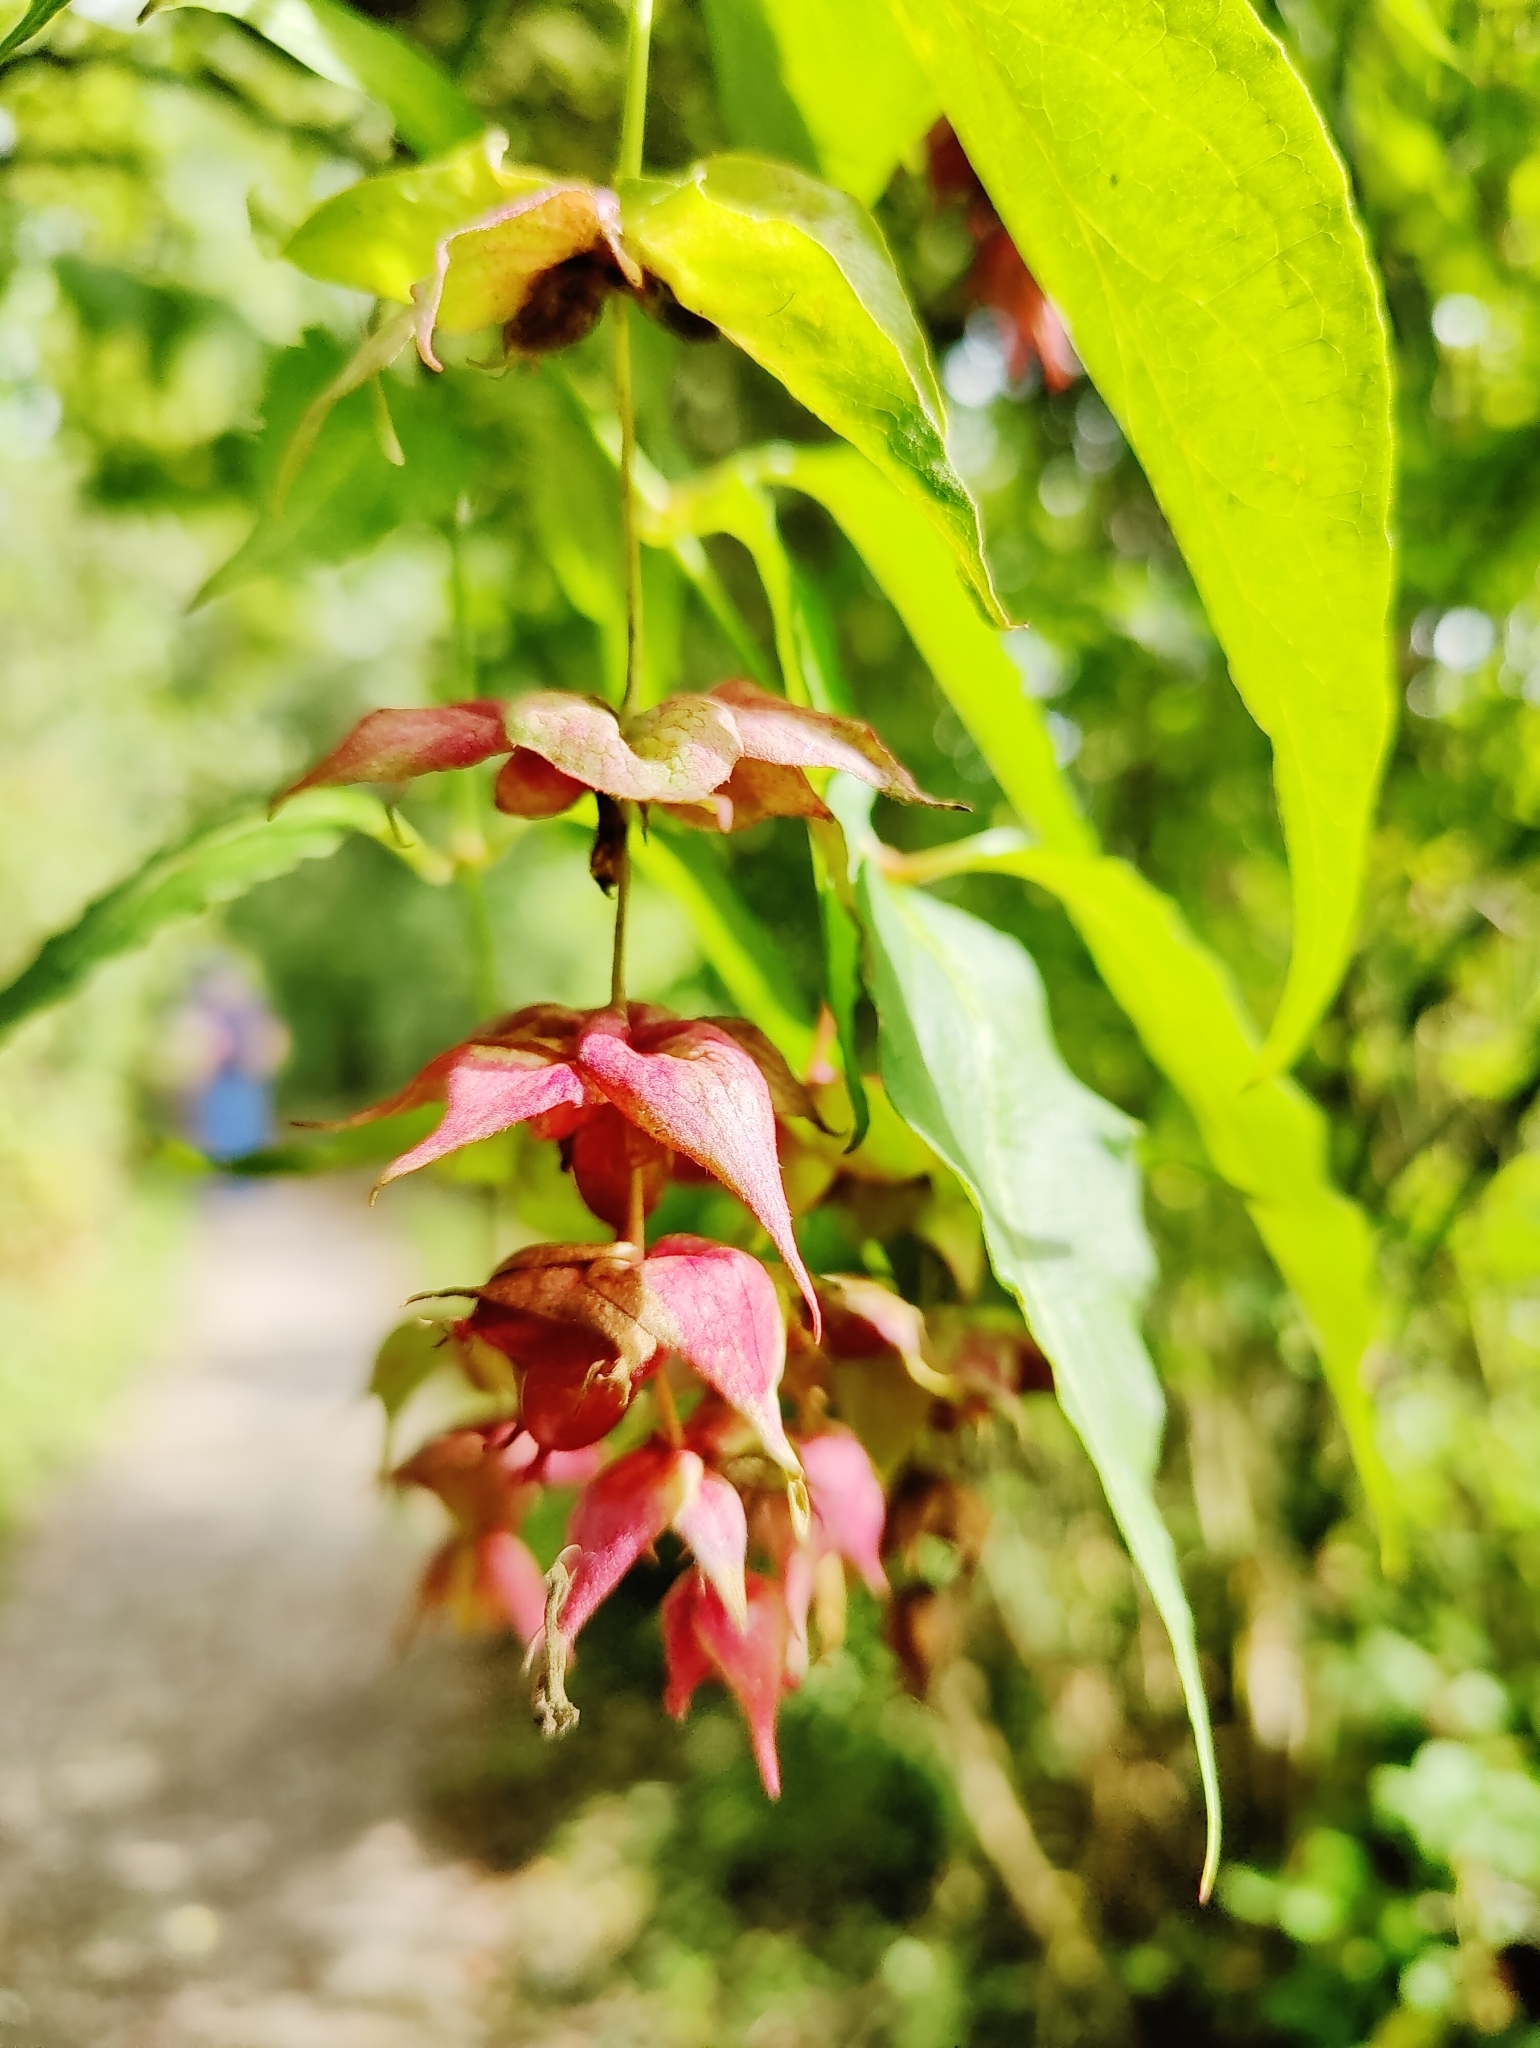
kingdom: Plantae
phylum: Tracheophyta
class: Magnoliopsida
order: Dipsacales
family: Caprifoliaceae
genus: Leycesteria
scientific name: Leycesteria formosa
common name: Himalayan honeysuckle
